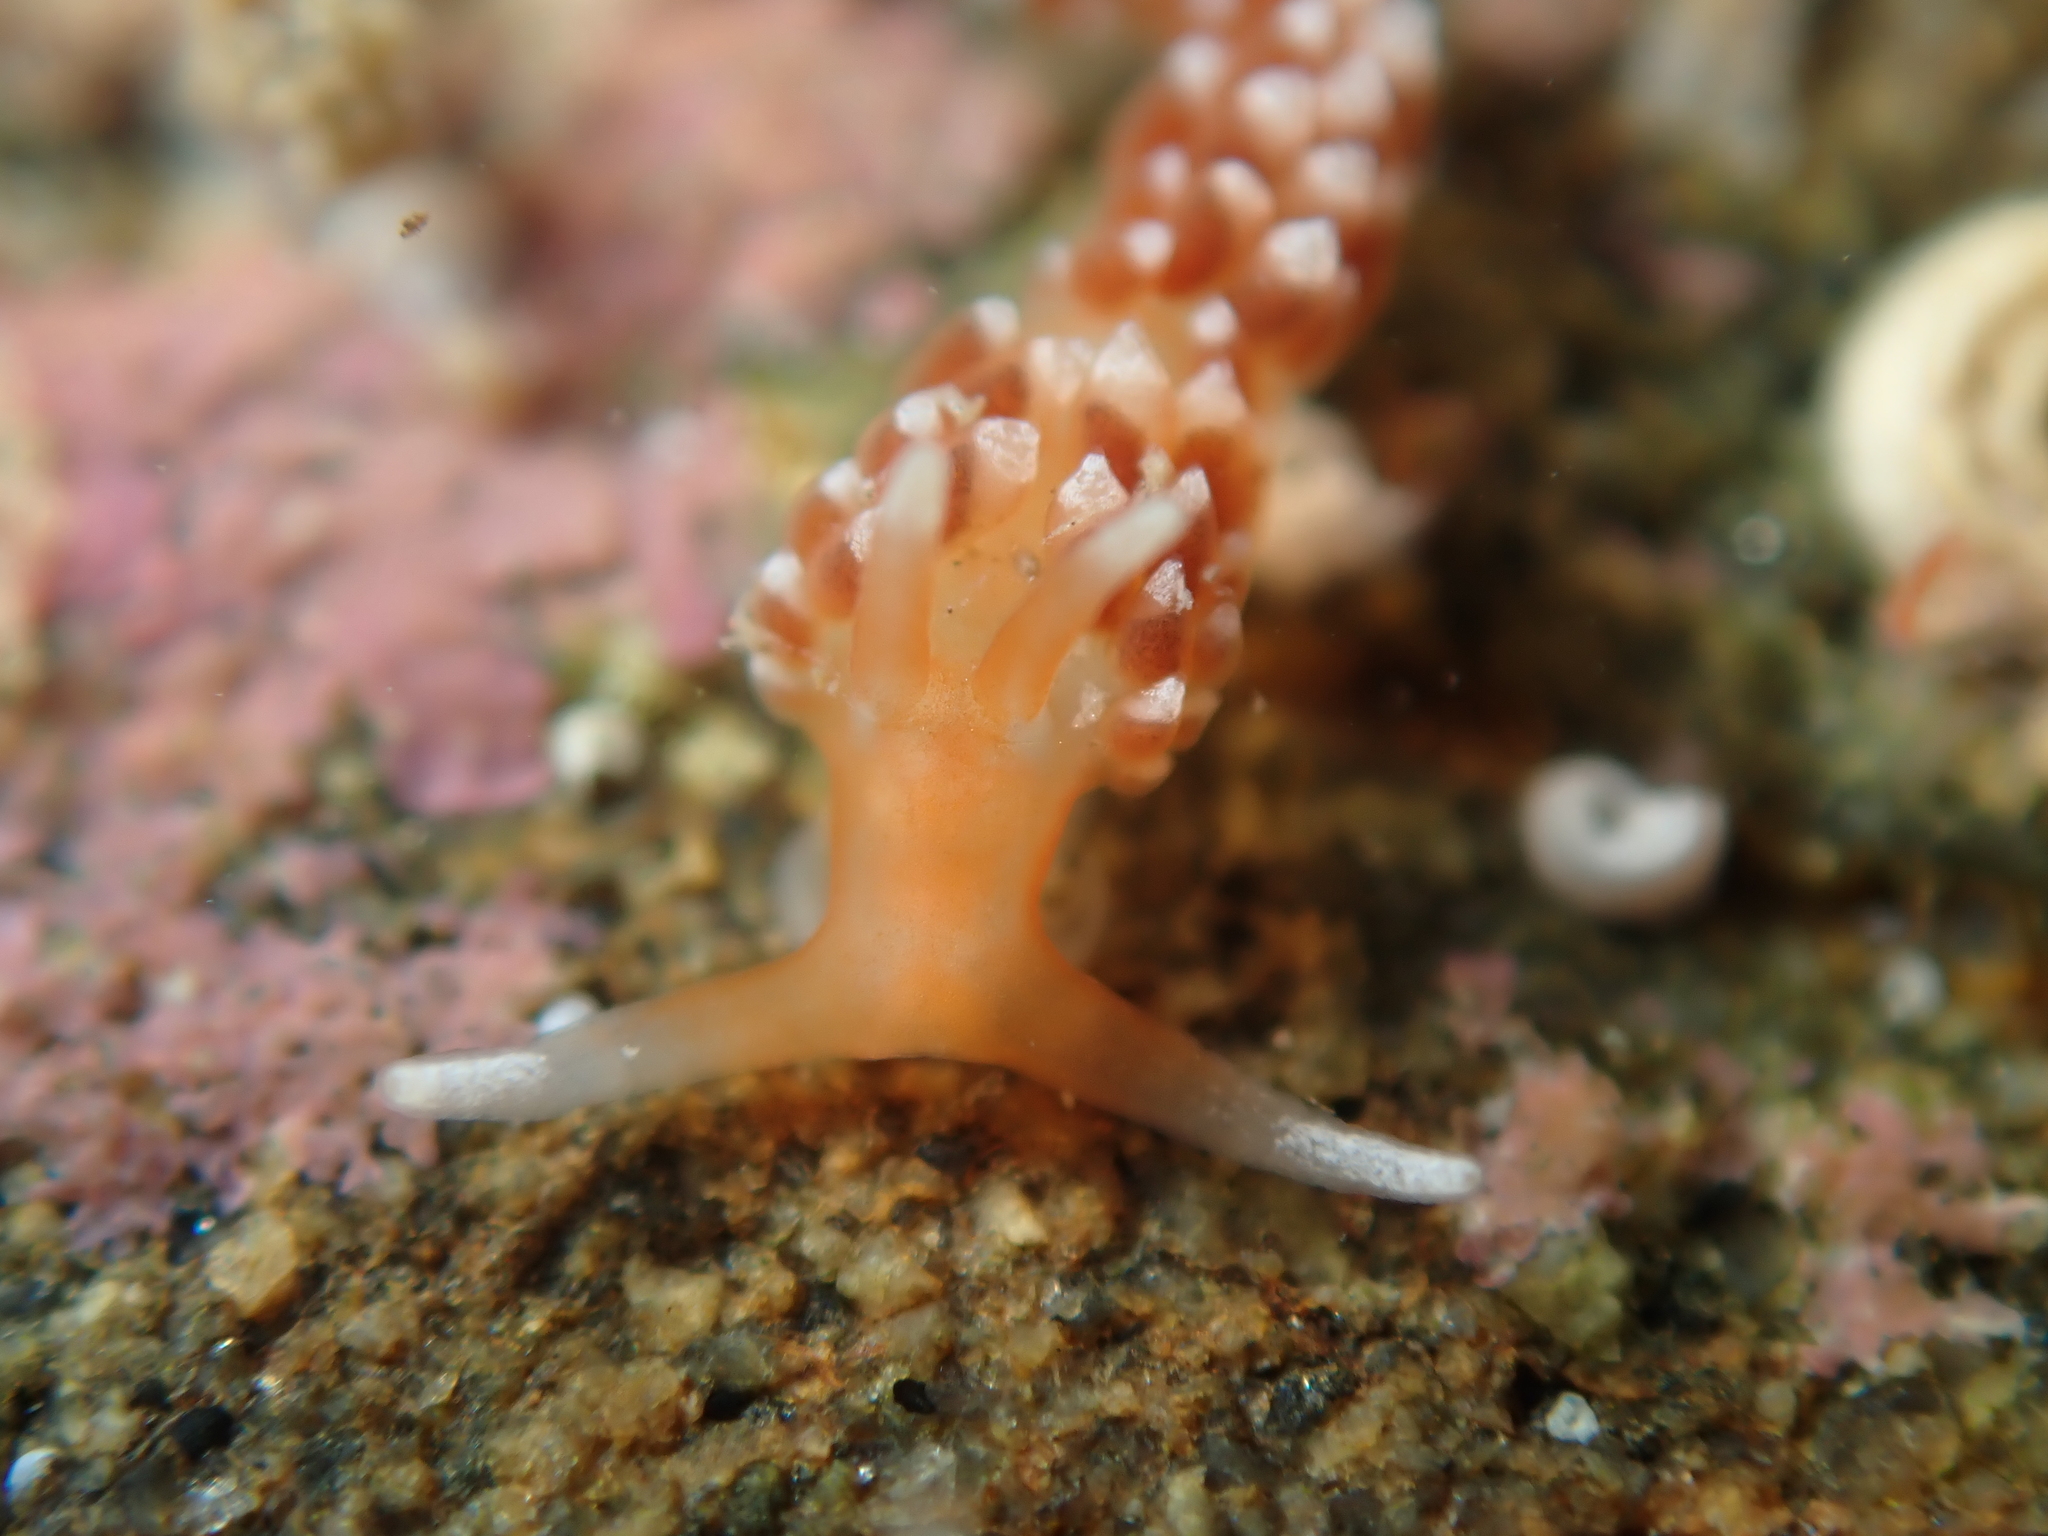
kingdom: Animalia
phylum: Mollusca
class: Gastropoda
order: Nudibranchia
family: Facelinidae
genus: Phidiana
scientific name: Phidiana milleri
